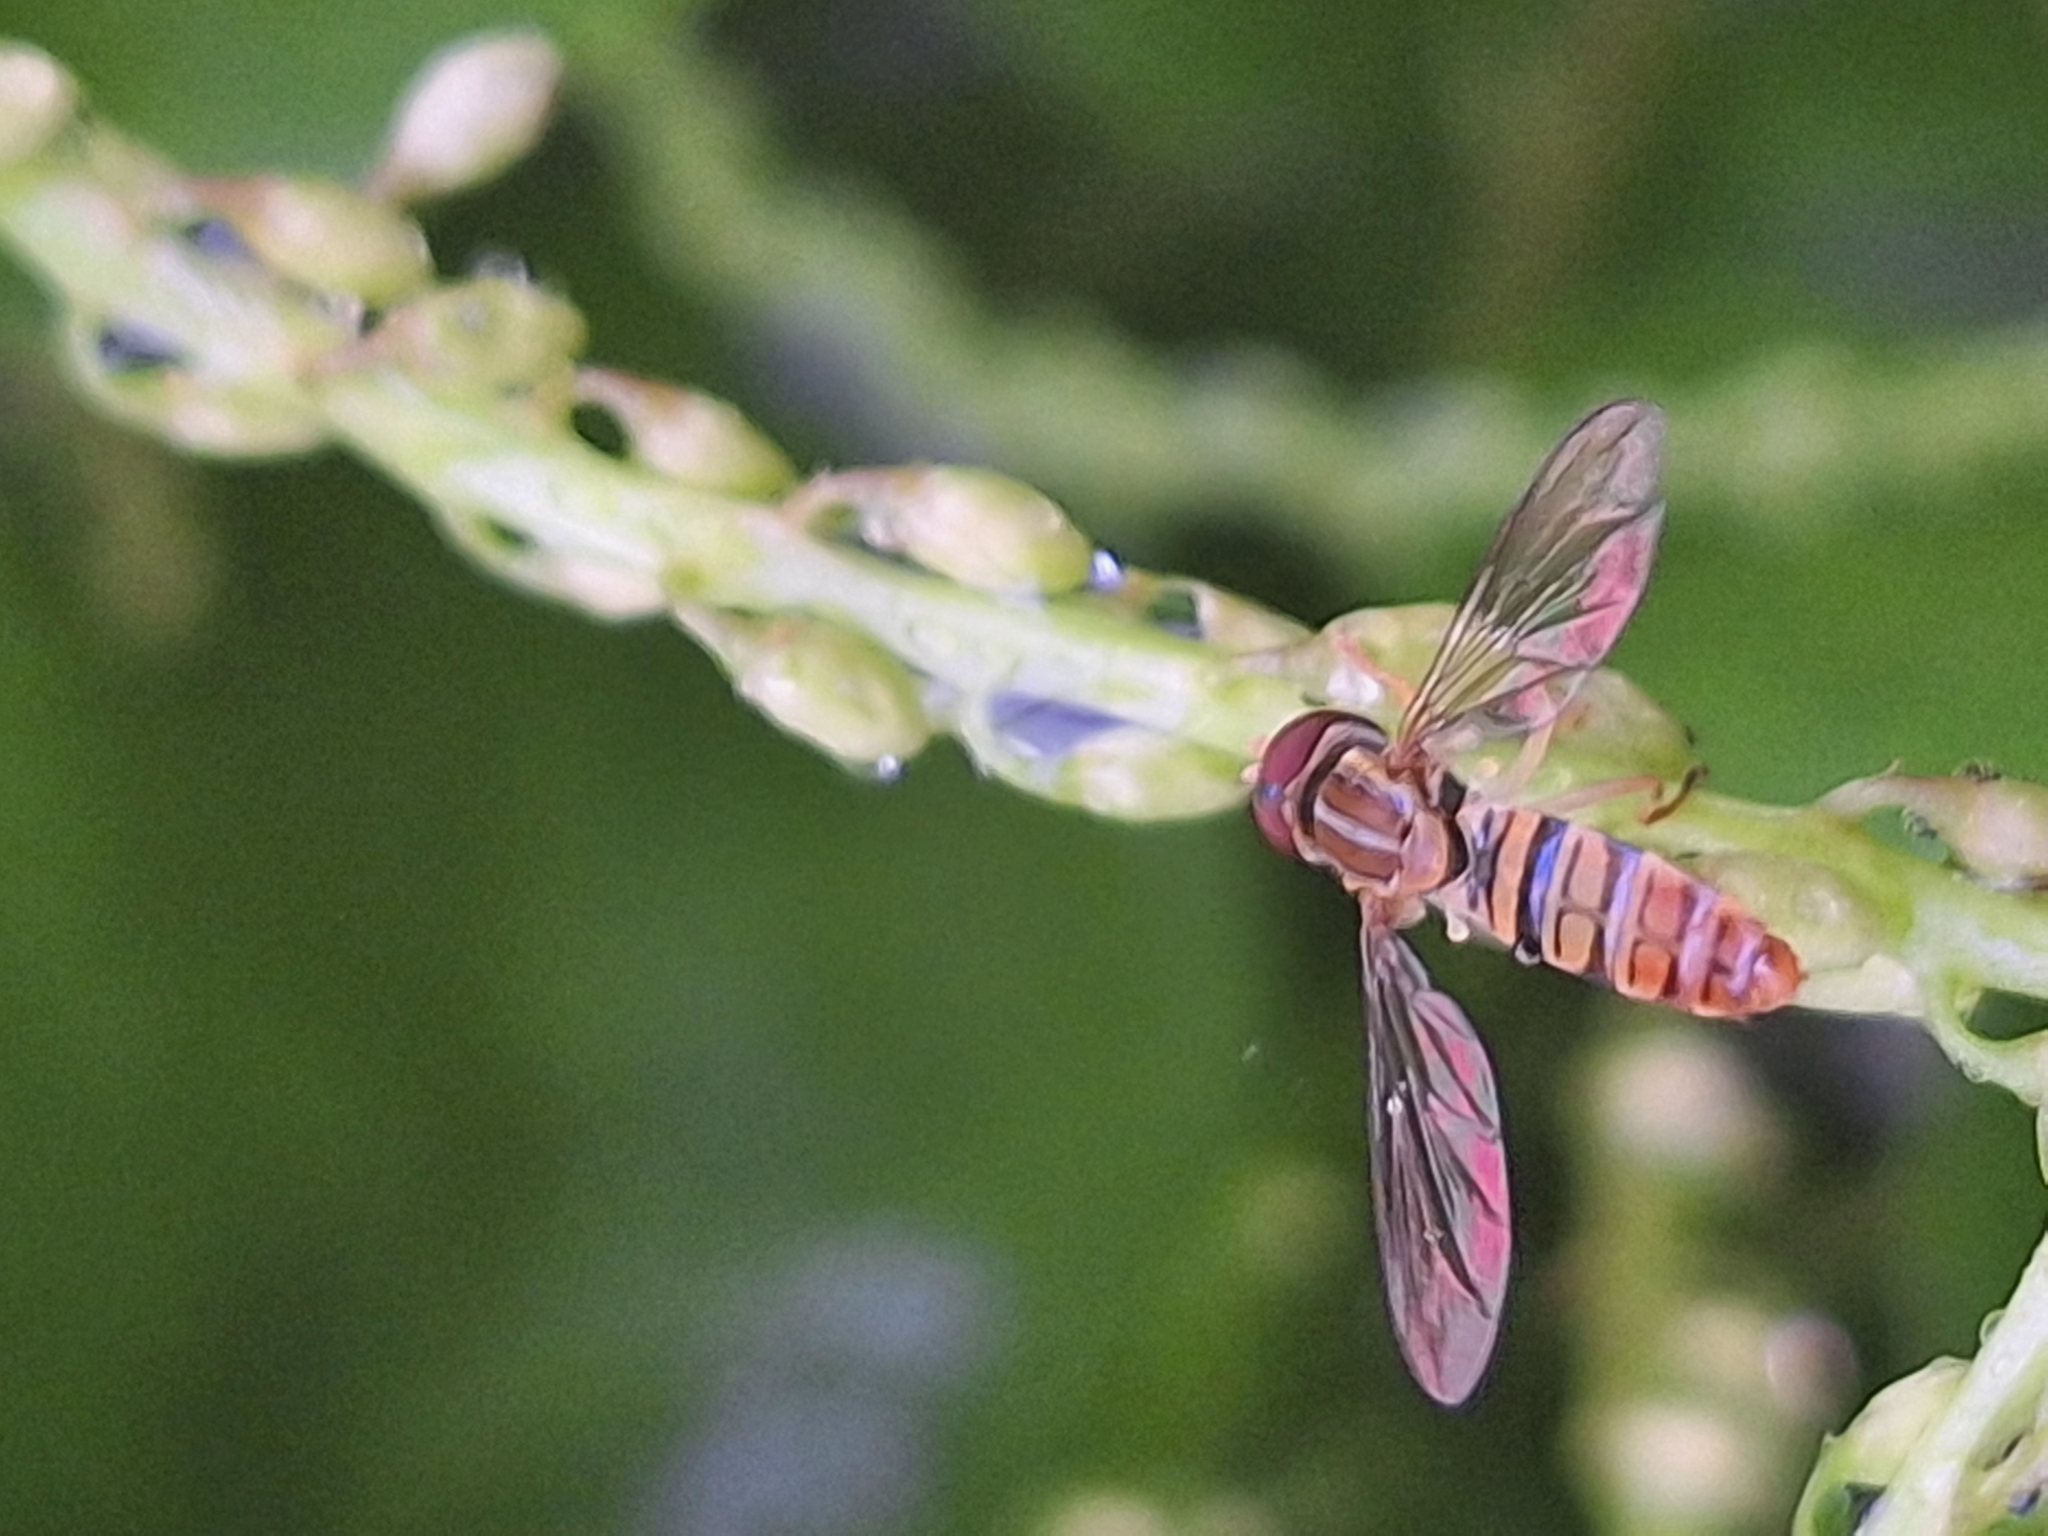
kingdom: Animalia
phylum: Arthropoda
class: Insecta
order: Diptera
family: Syrphidae
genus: Toxomerus
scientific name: Toxomerus politus
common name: Maize calligrapher
